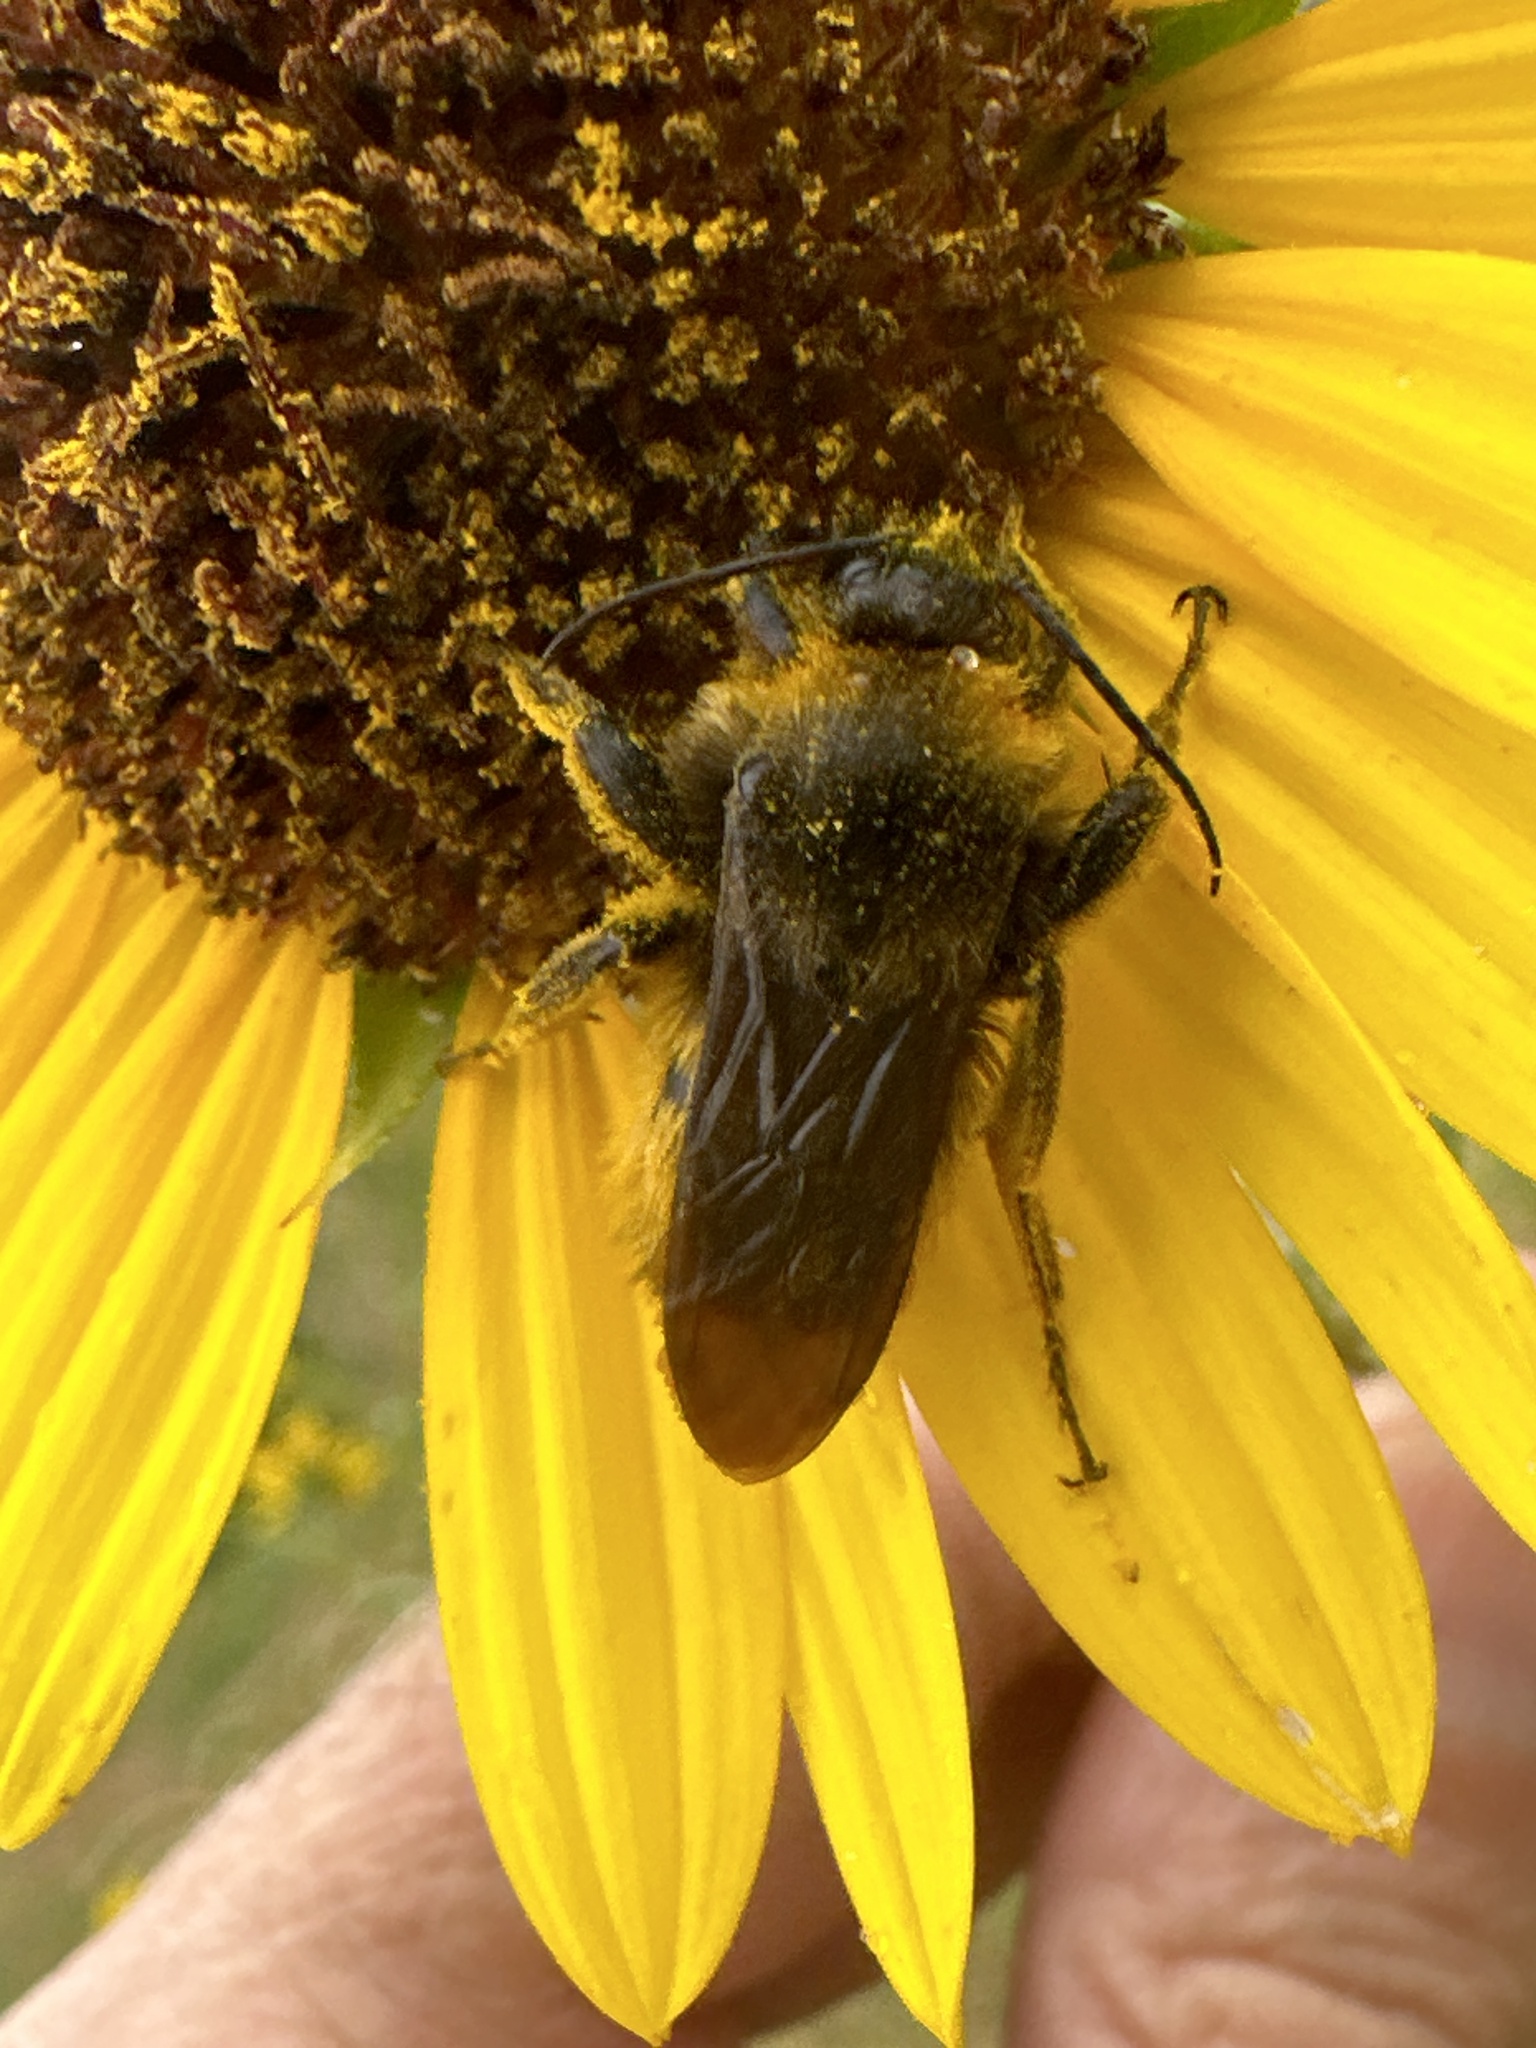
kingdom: Animalia
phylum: Arthropoda
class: Insecta
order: Hymenoptera
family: Apidae
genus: Bombus
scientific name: Bombus pensylvanicus
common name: Bumble bee
